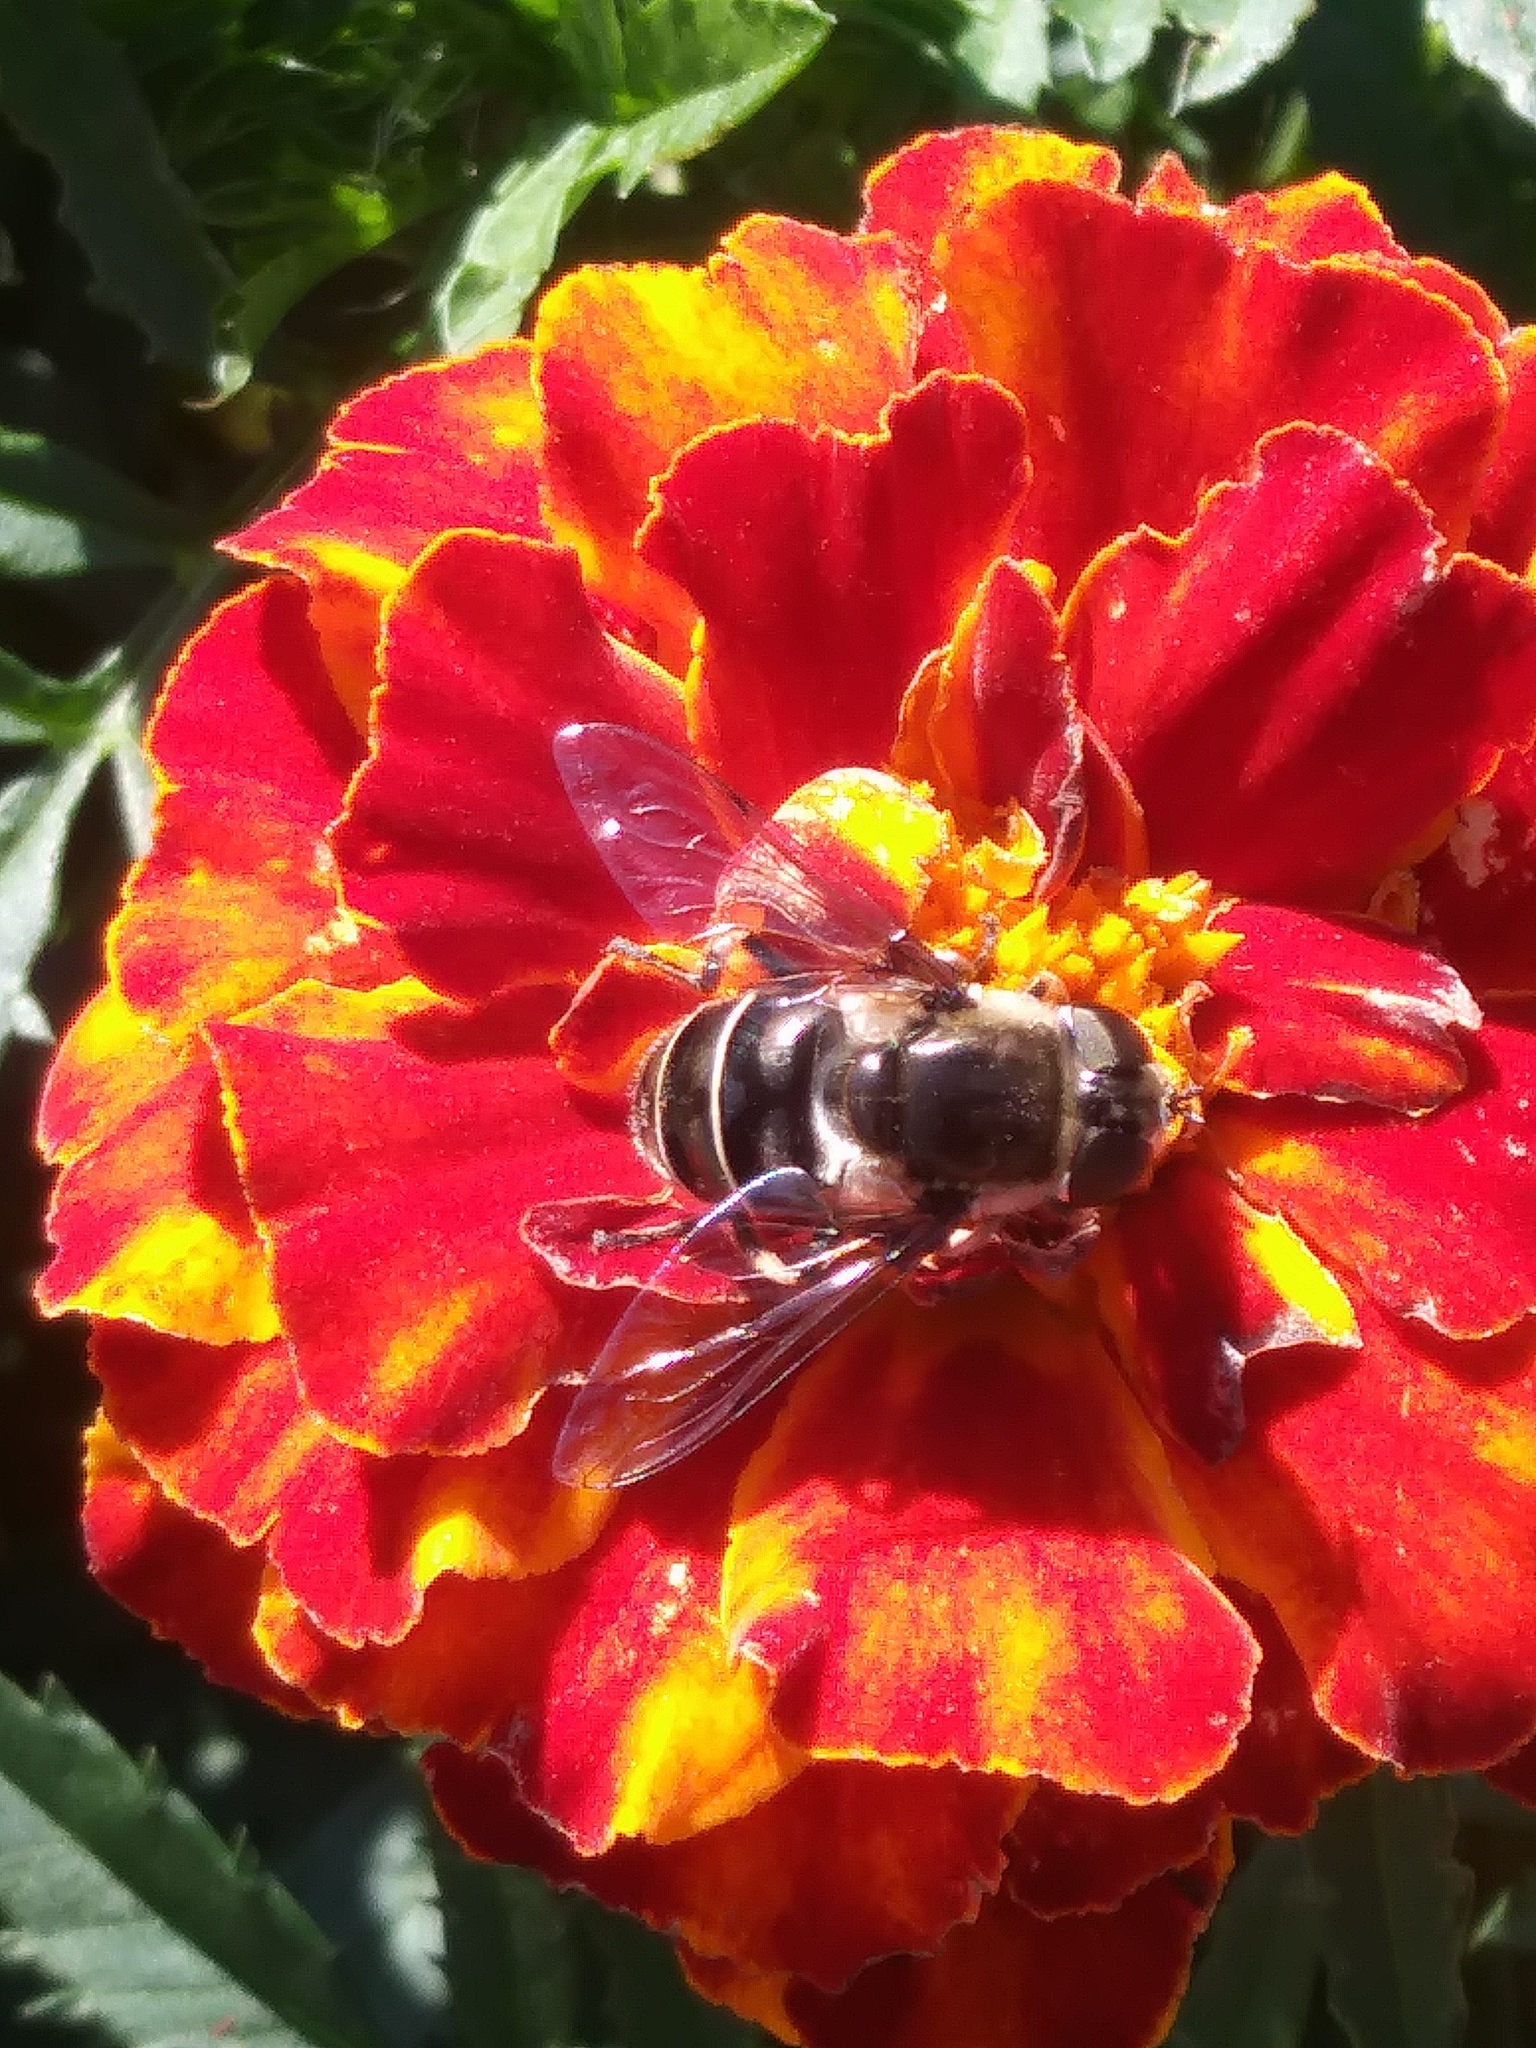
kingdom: Animalia
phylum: Arthropoda
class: Insecta
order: Diptera
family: Syrphidae
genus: Eristalis
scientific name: Eristalis dimidiata
